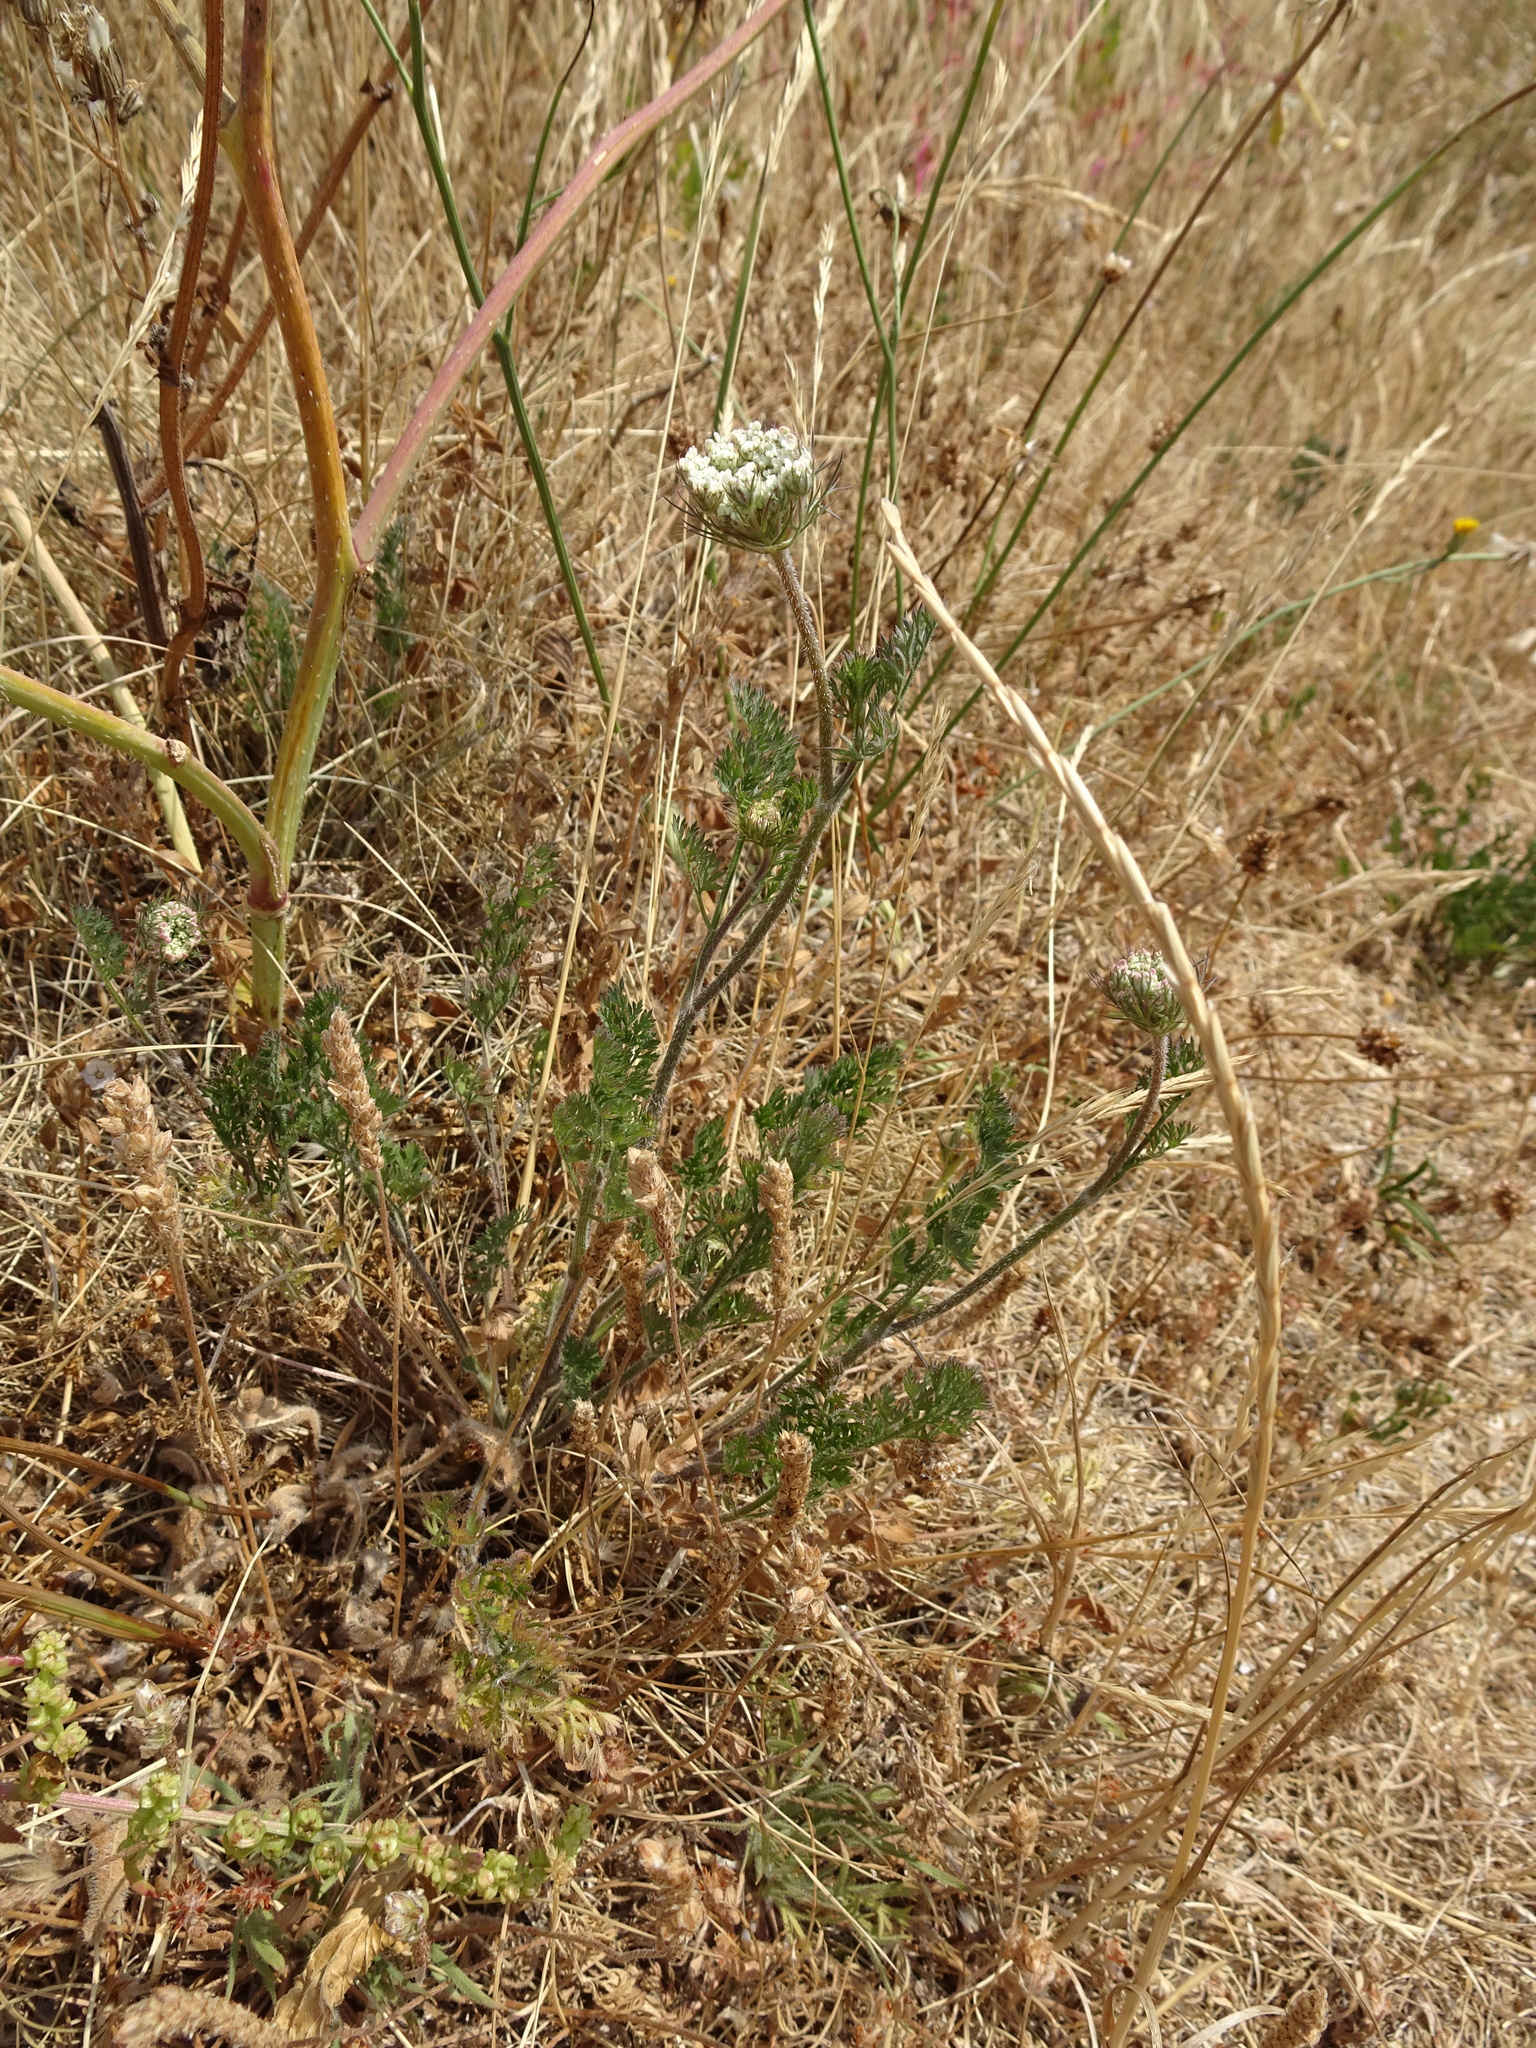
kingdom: Plantae
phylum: Tracheophyta
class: Magnoliopsida
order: Apiales
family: Apiaceae
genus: Daucus
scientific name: Daucus carota
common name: Wild carrot
